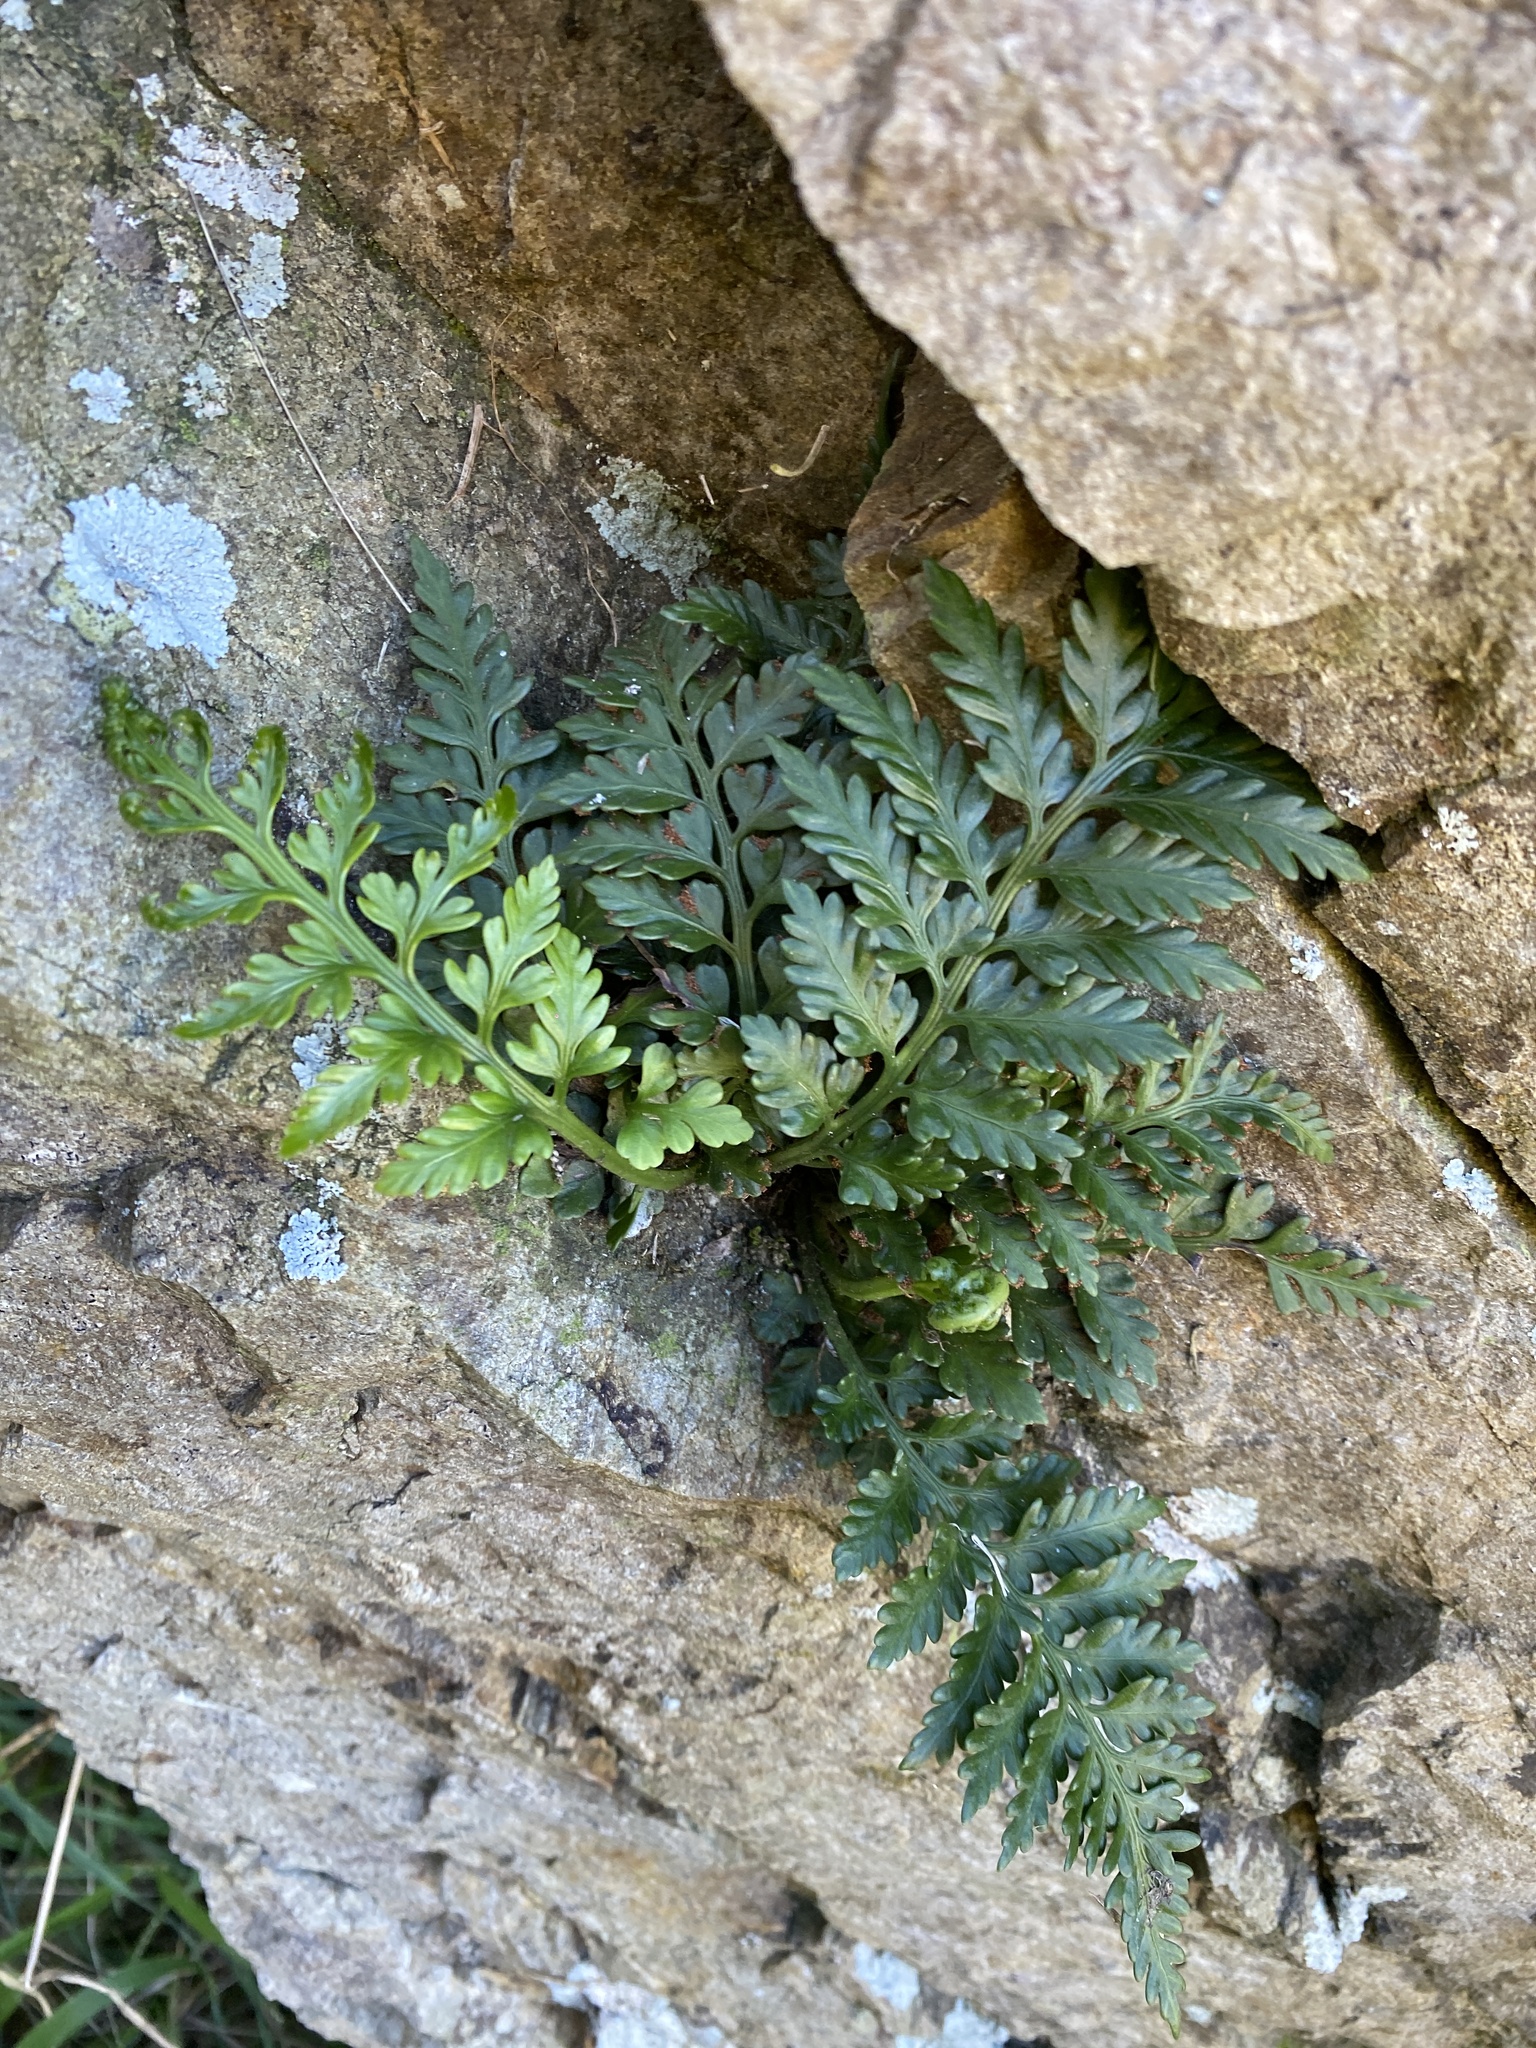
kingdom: Plantae
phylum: Tracheophyta
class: Polypodiopsida
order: Polypodiales
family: Aspleniaceae
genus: Asplenium
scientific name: Asplenium appendiculatum
